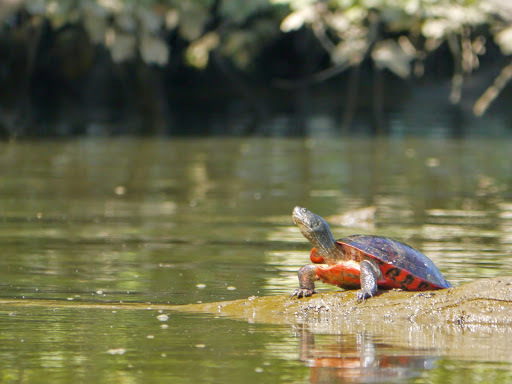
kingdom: Animalia
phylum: Chordata
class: Testudines
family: Emydidae
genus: Pseudemys
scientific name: Pseudemys rubriventris
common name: American red-bellied turtle
